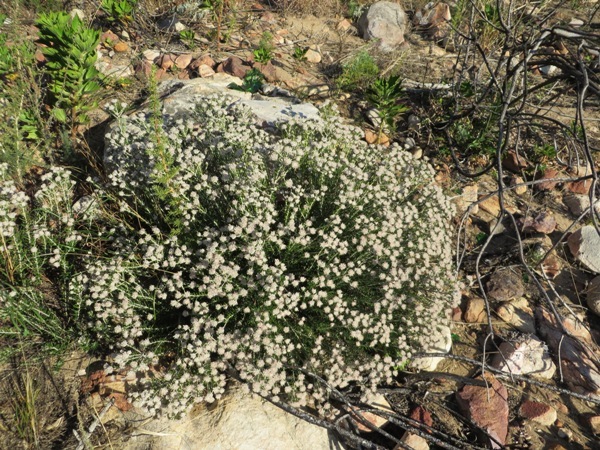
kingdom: Plantae
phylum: Tracheophyta
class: Magnoliopsida
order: Rosales
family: Rhamnaceae
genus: Trichocephalus
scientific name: Trichocephalus stipularis
